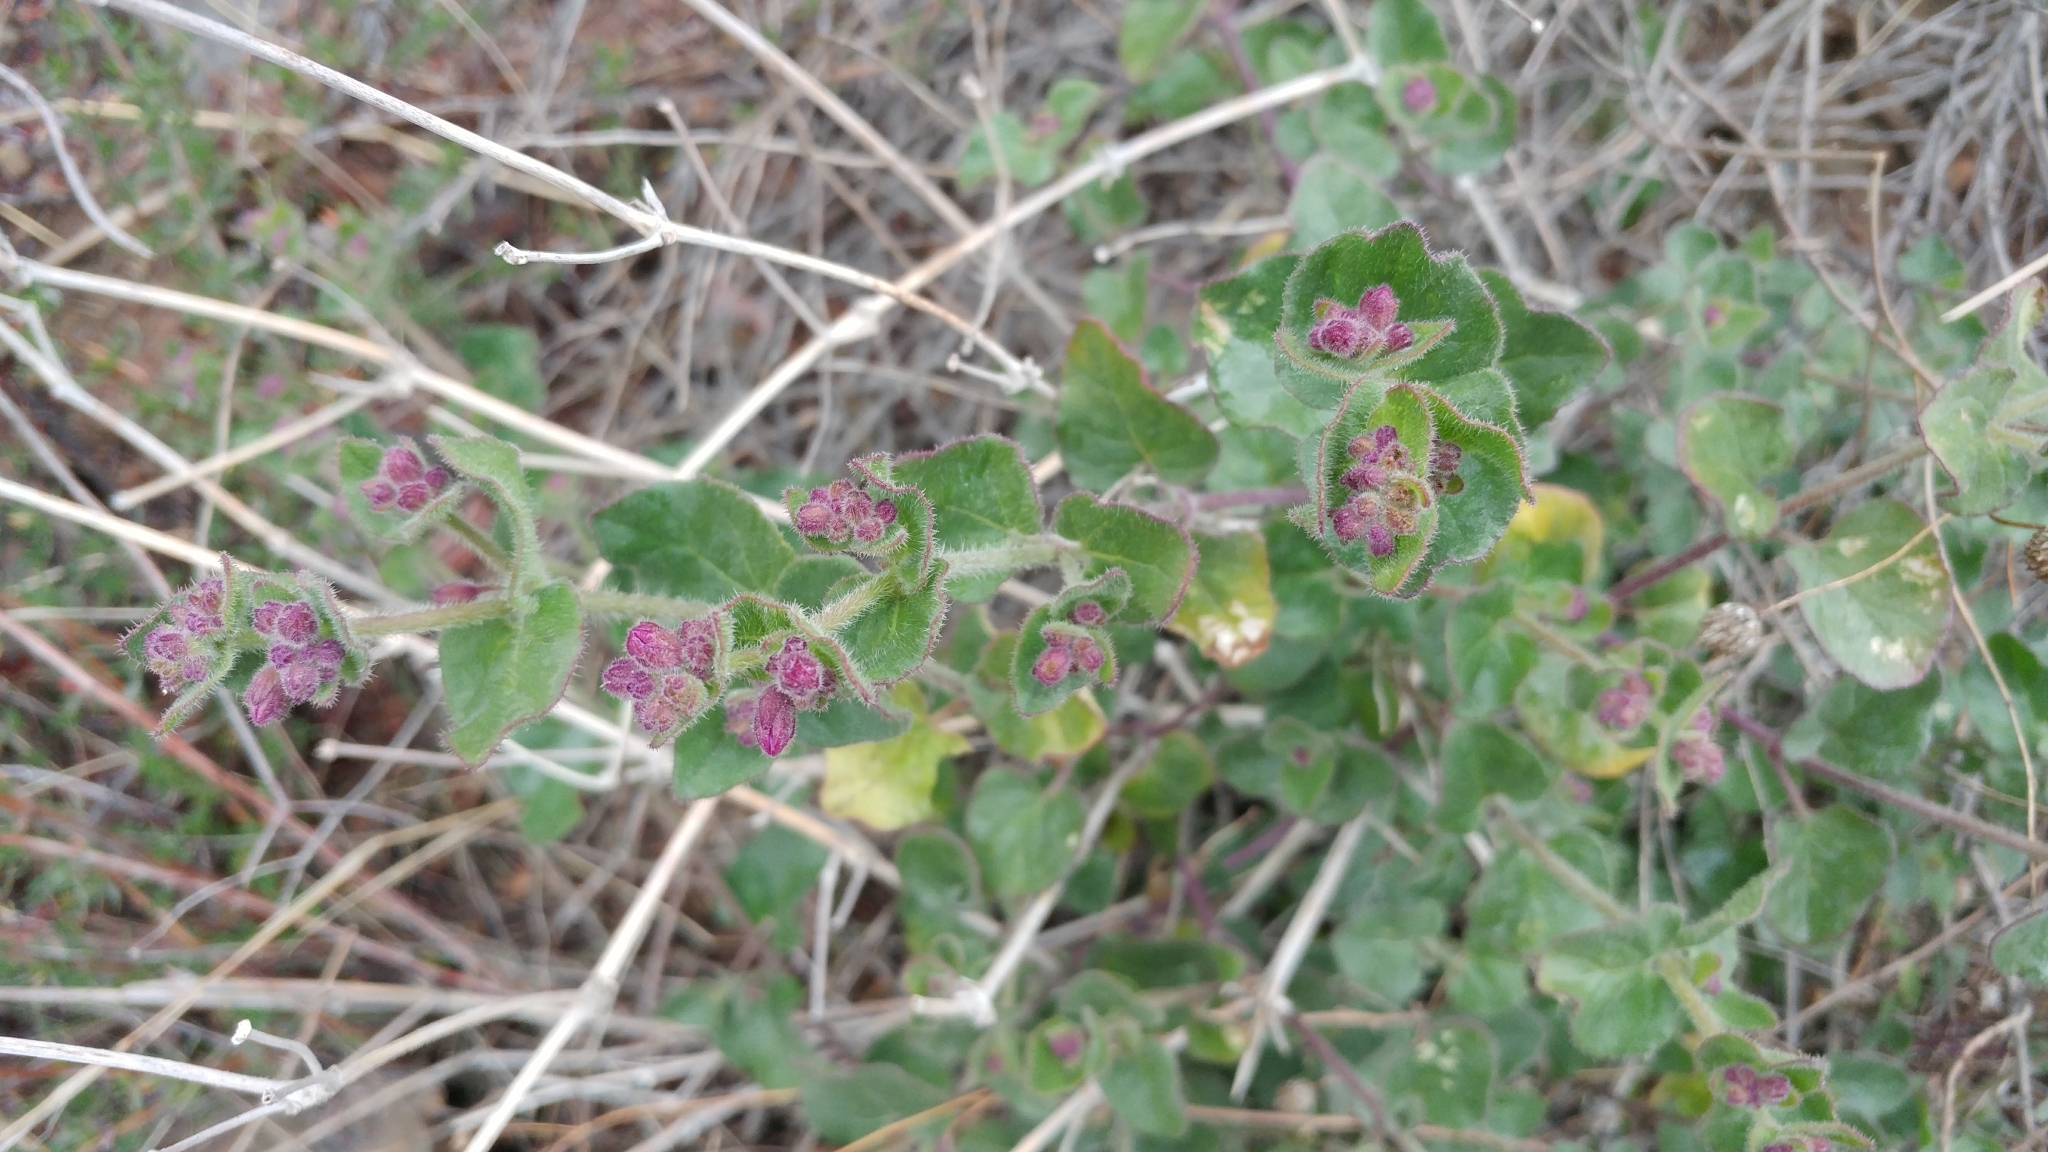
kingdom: Plantae
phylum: Tracheophyta
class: Magnoliopsida
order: Caryophyllales
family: Nyctaginaceae
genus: Mirabilis
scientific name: Mirabilis laevis
